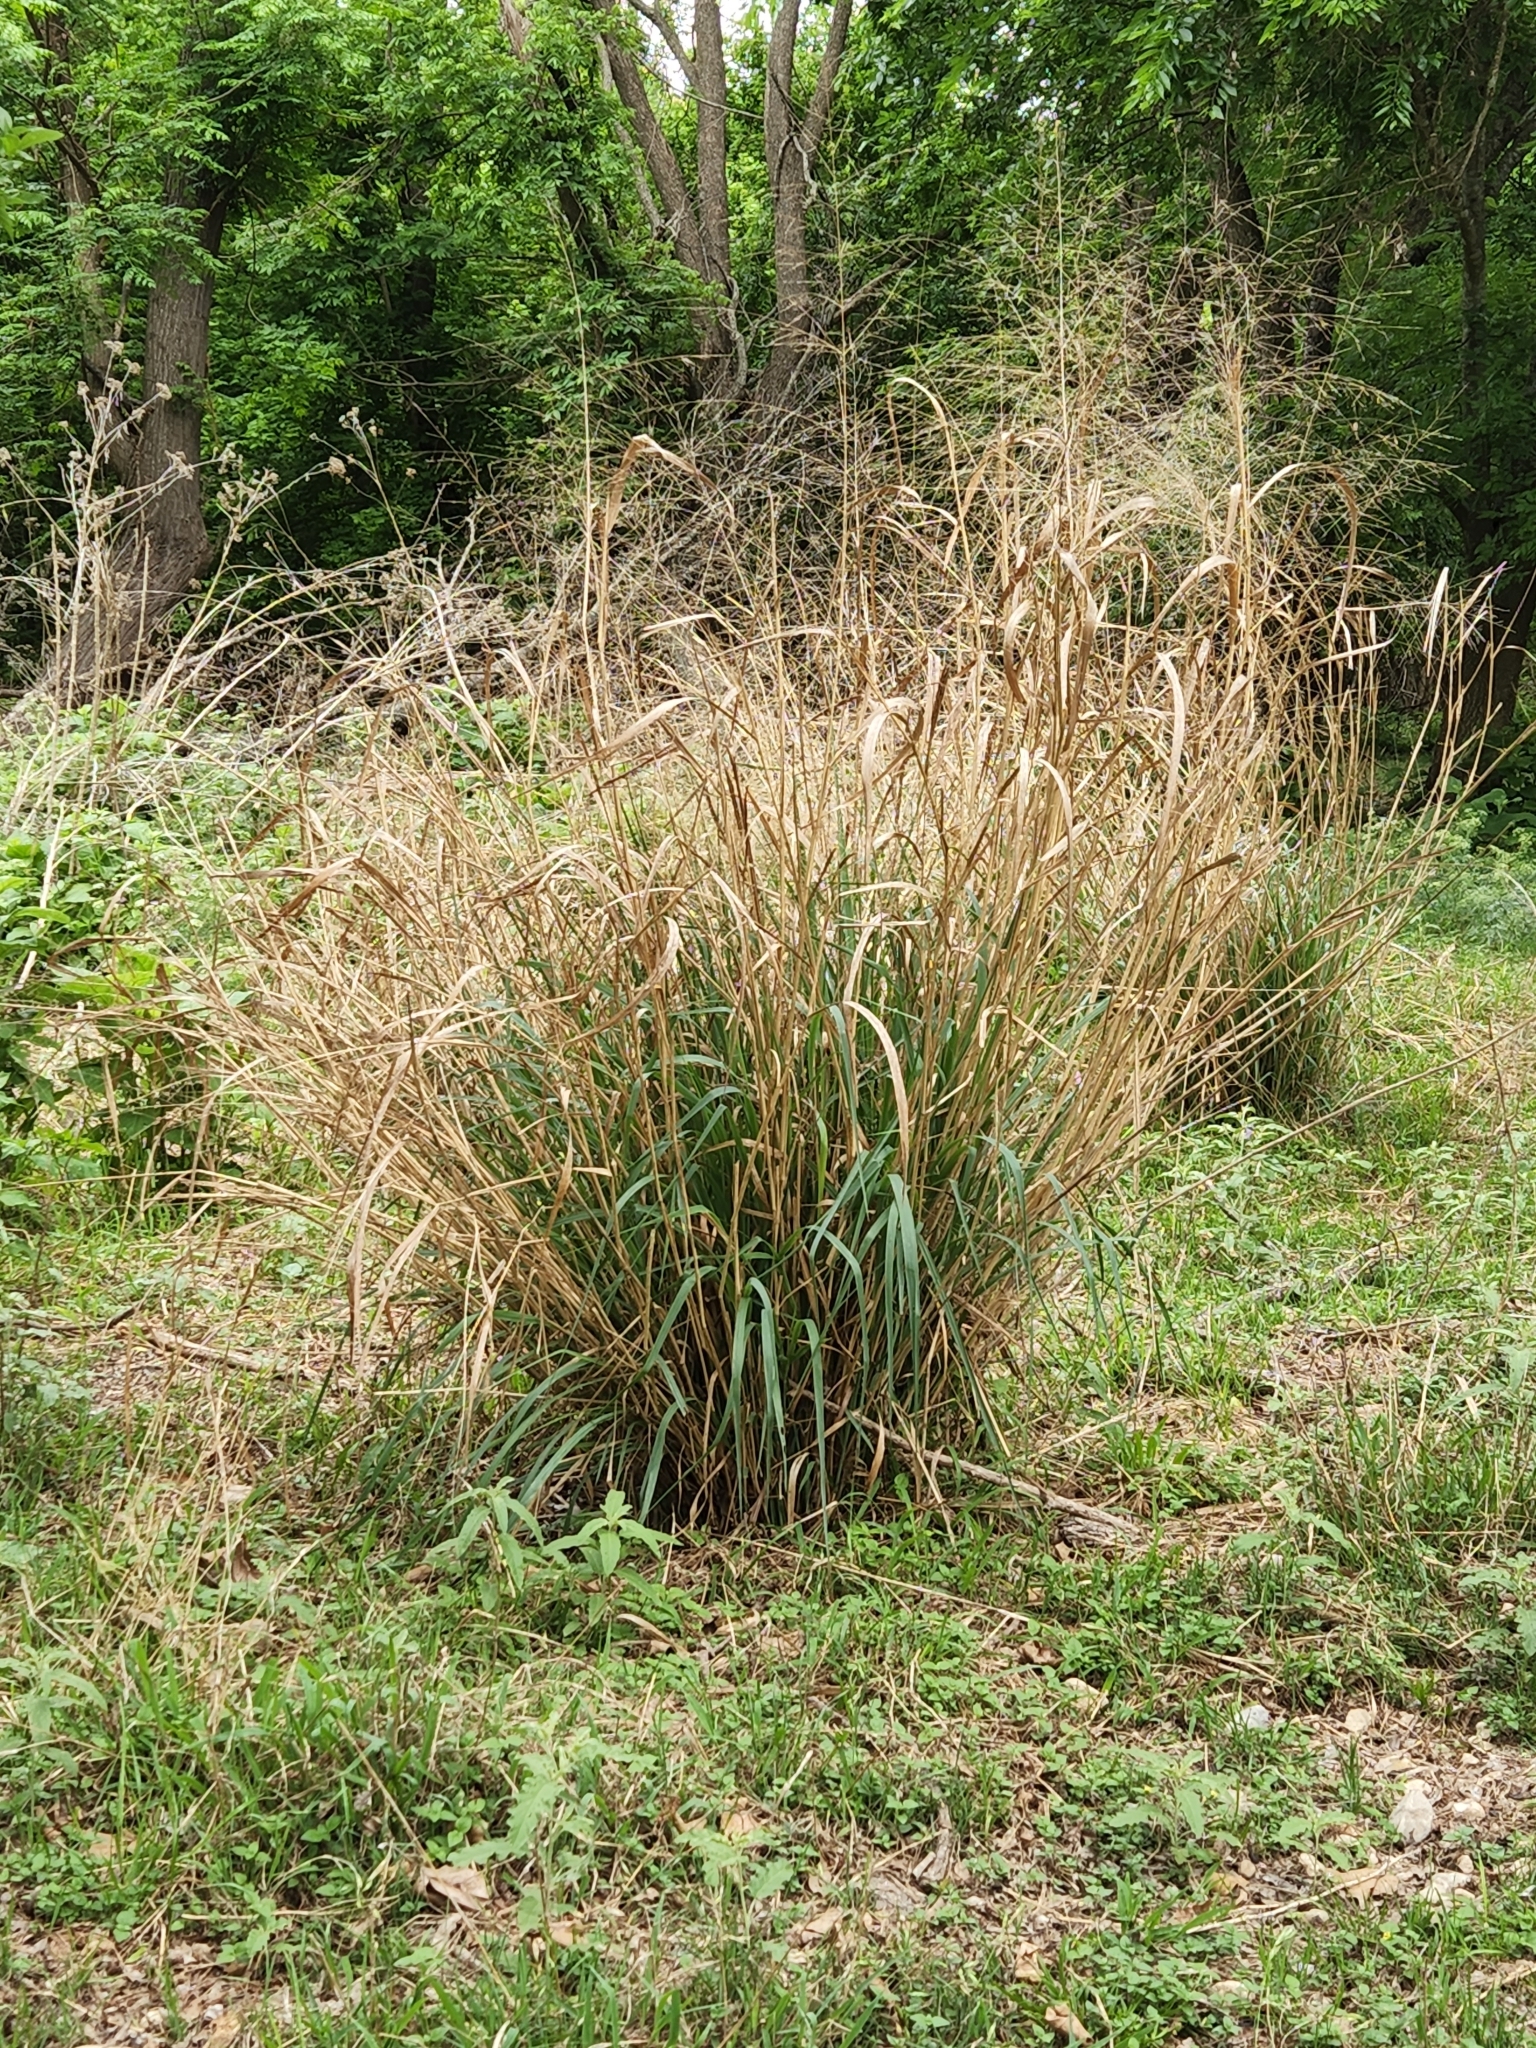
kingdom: Plantae
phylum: Tracheophyta
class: Liliopsida
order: Poales
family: Poaceae
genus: Panicum
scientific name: Panicum virgatum
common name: Switchgrass
